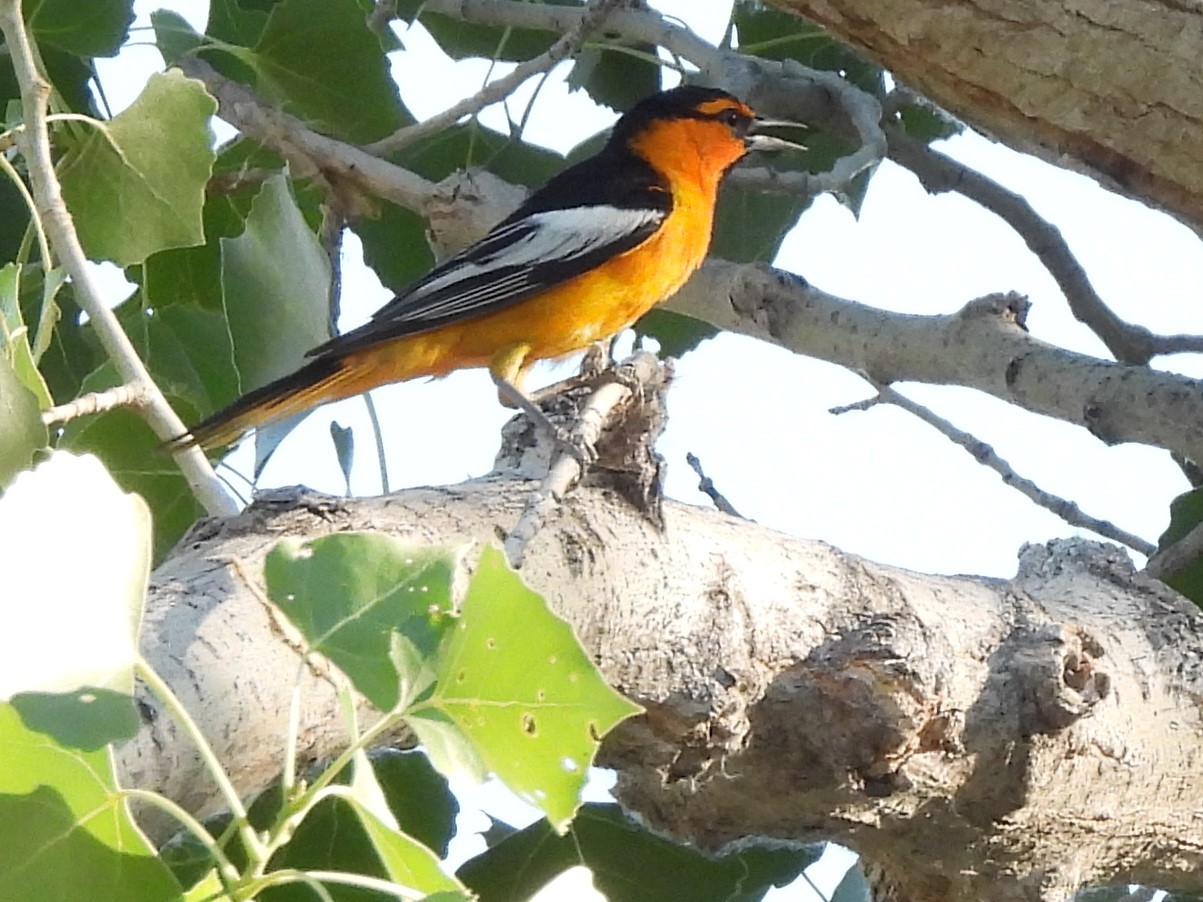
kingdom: Animalia
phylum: Chordata
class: Aves
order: Passeriformes
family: Icteridae
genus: Icterus
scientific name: Icterus bullockii
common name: Bullock's oriole
